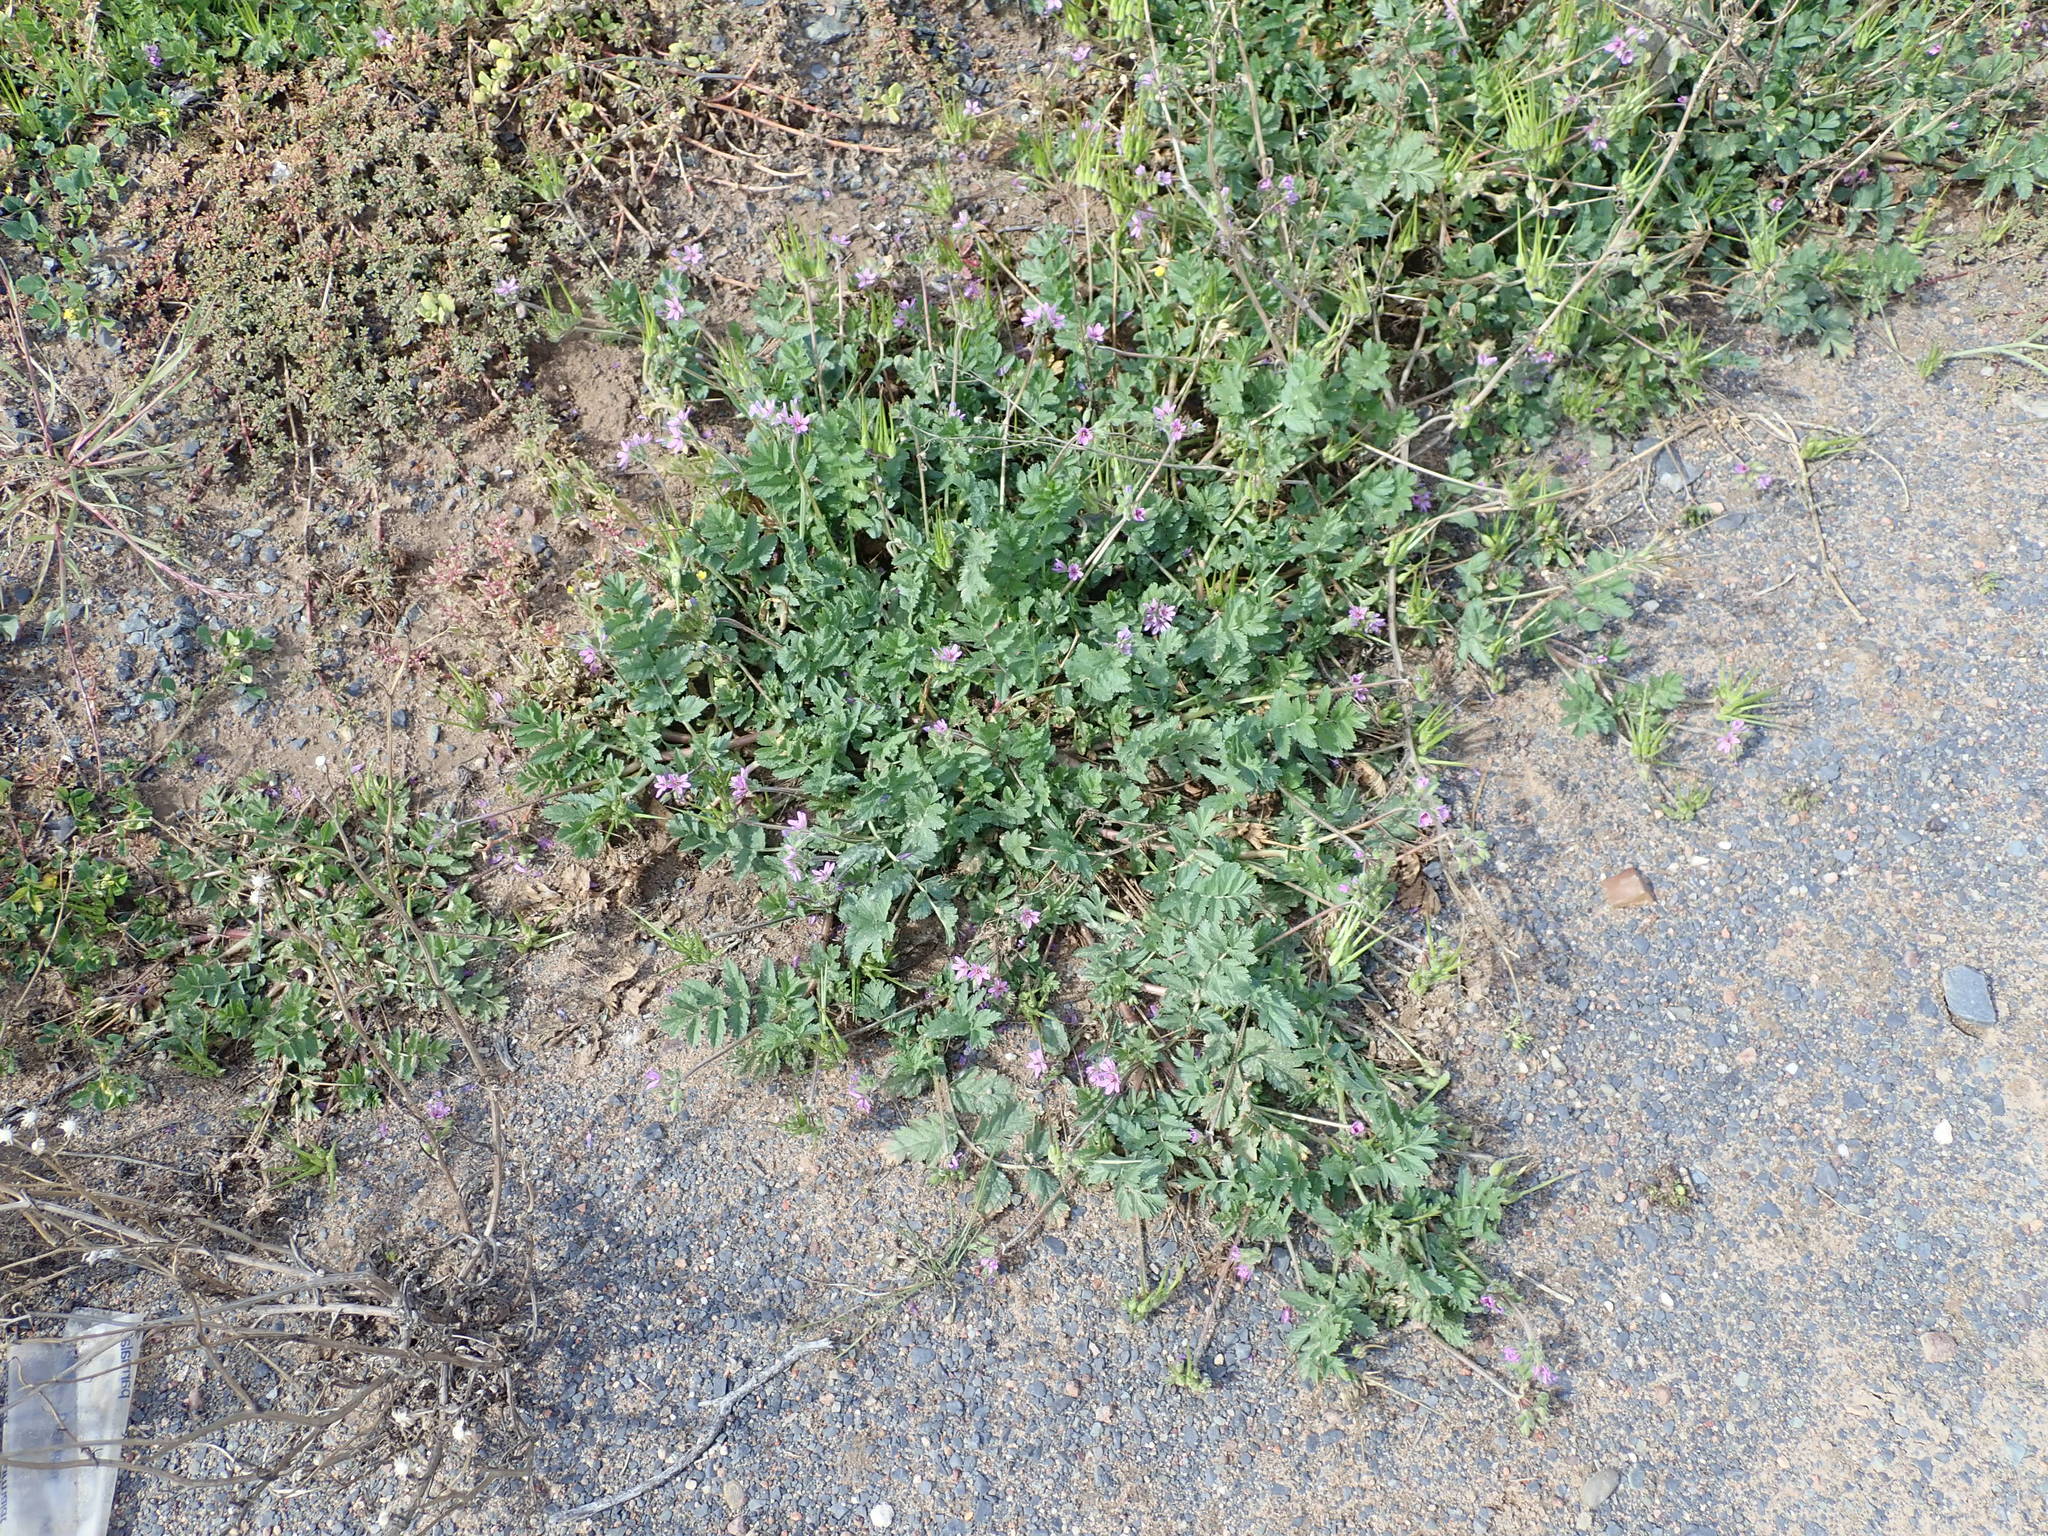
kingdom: Plantae
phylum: Tracheophyta
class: Magnoliopsida
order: Geraniales
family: Geraniaceae
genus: Erodium
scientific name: Erodium moschatum
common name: Musk stork's-bill
